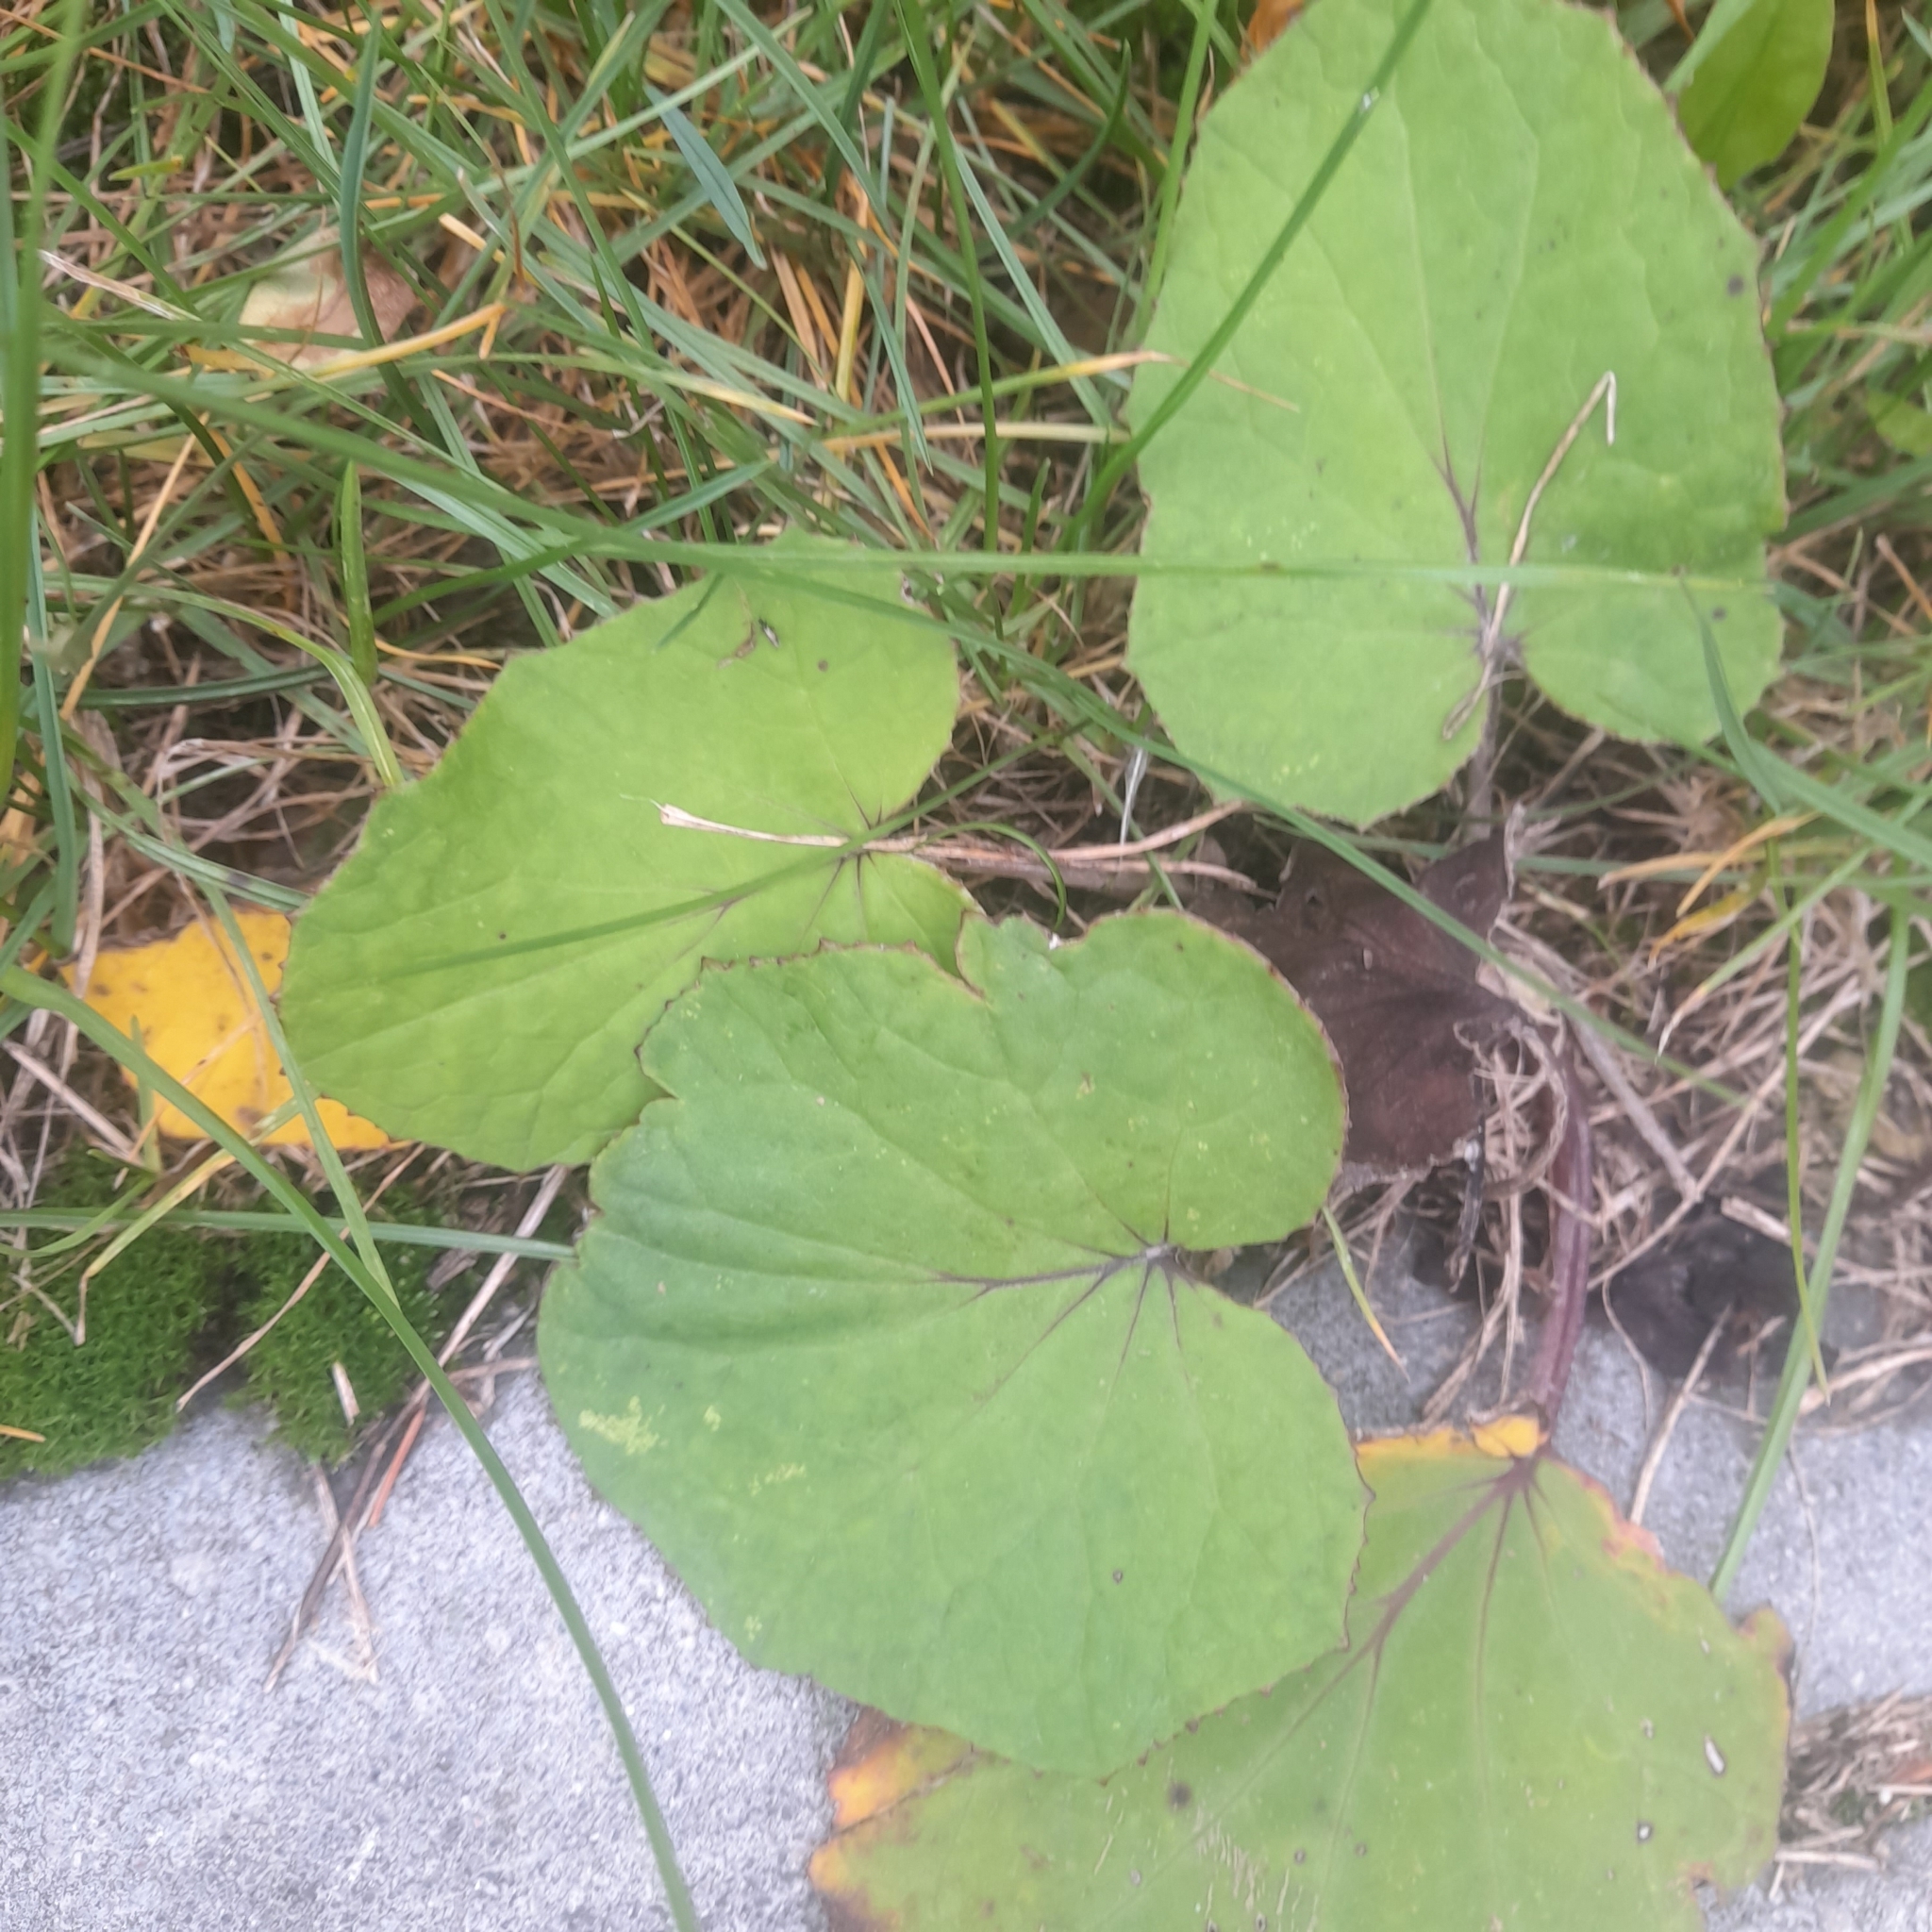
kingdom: Plantae
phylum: Tracheophyta
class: Magnoliopsida
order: Asterales
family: Asteraceae
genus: Tussilago
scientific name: Tussilago farfara
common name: Coltsfoot
